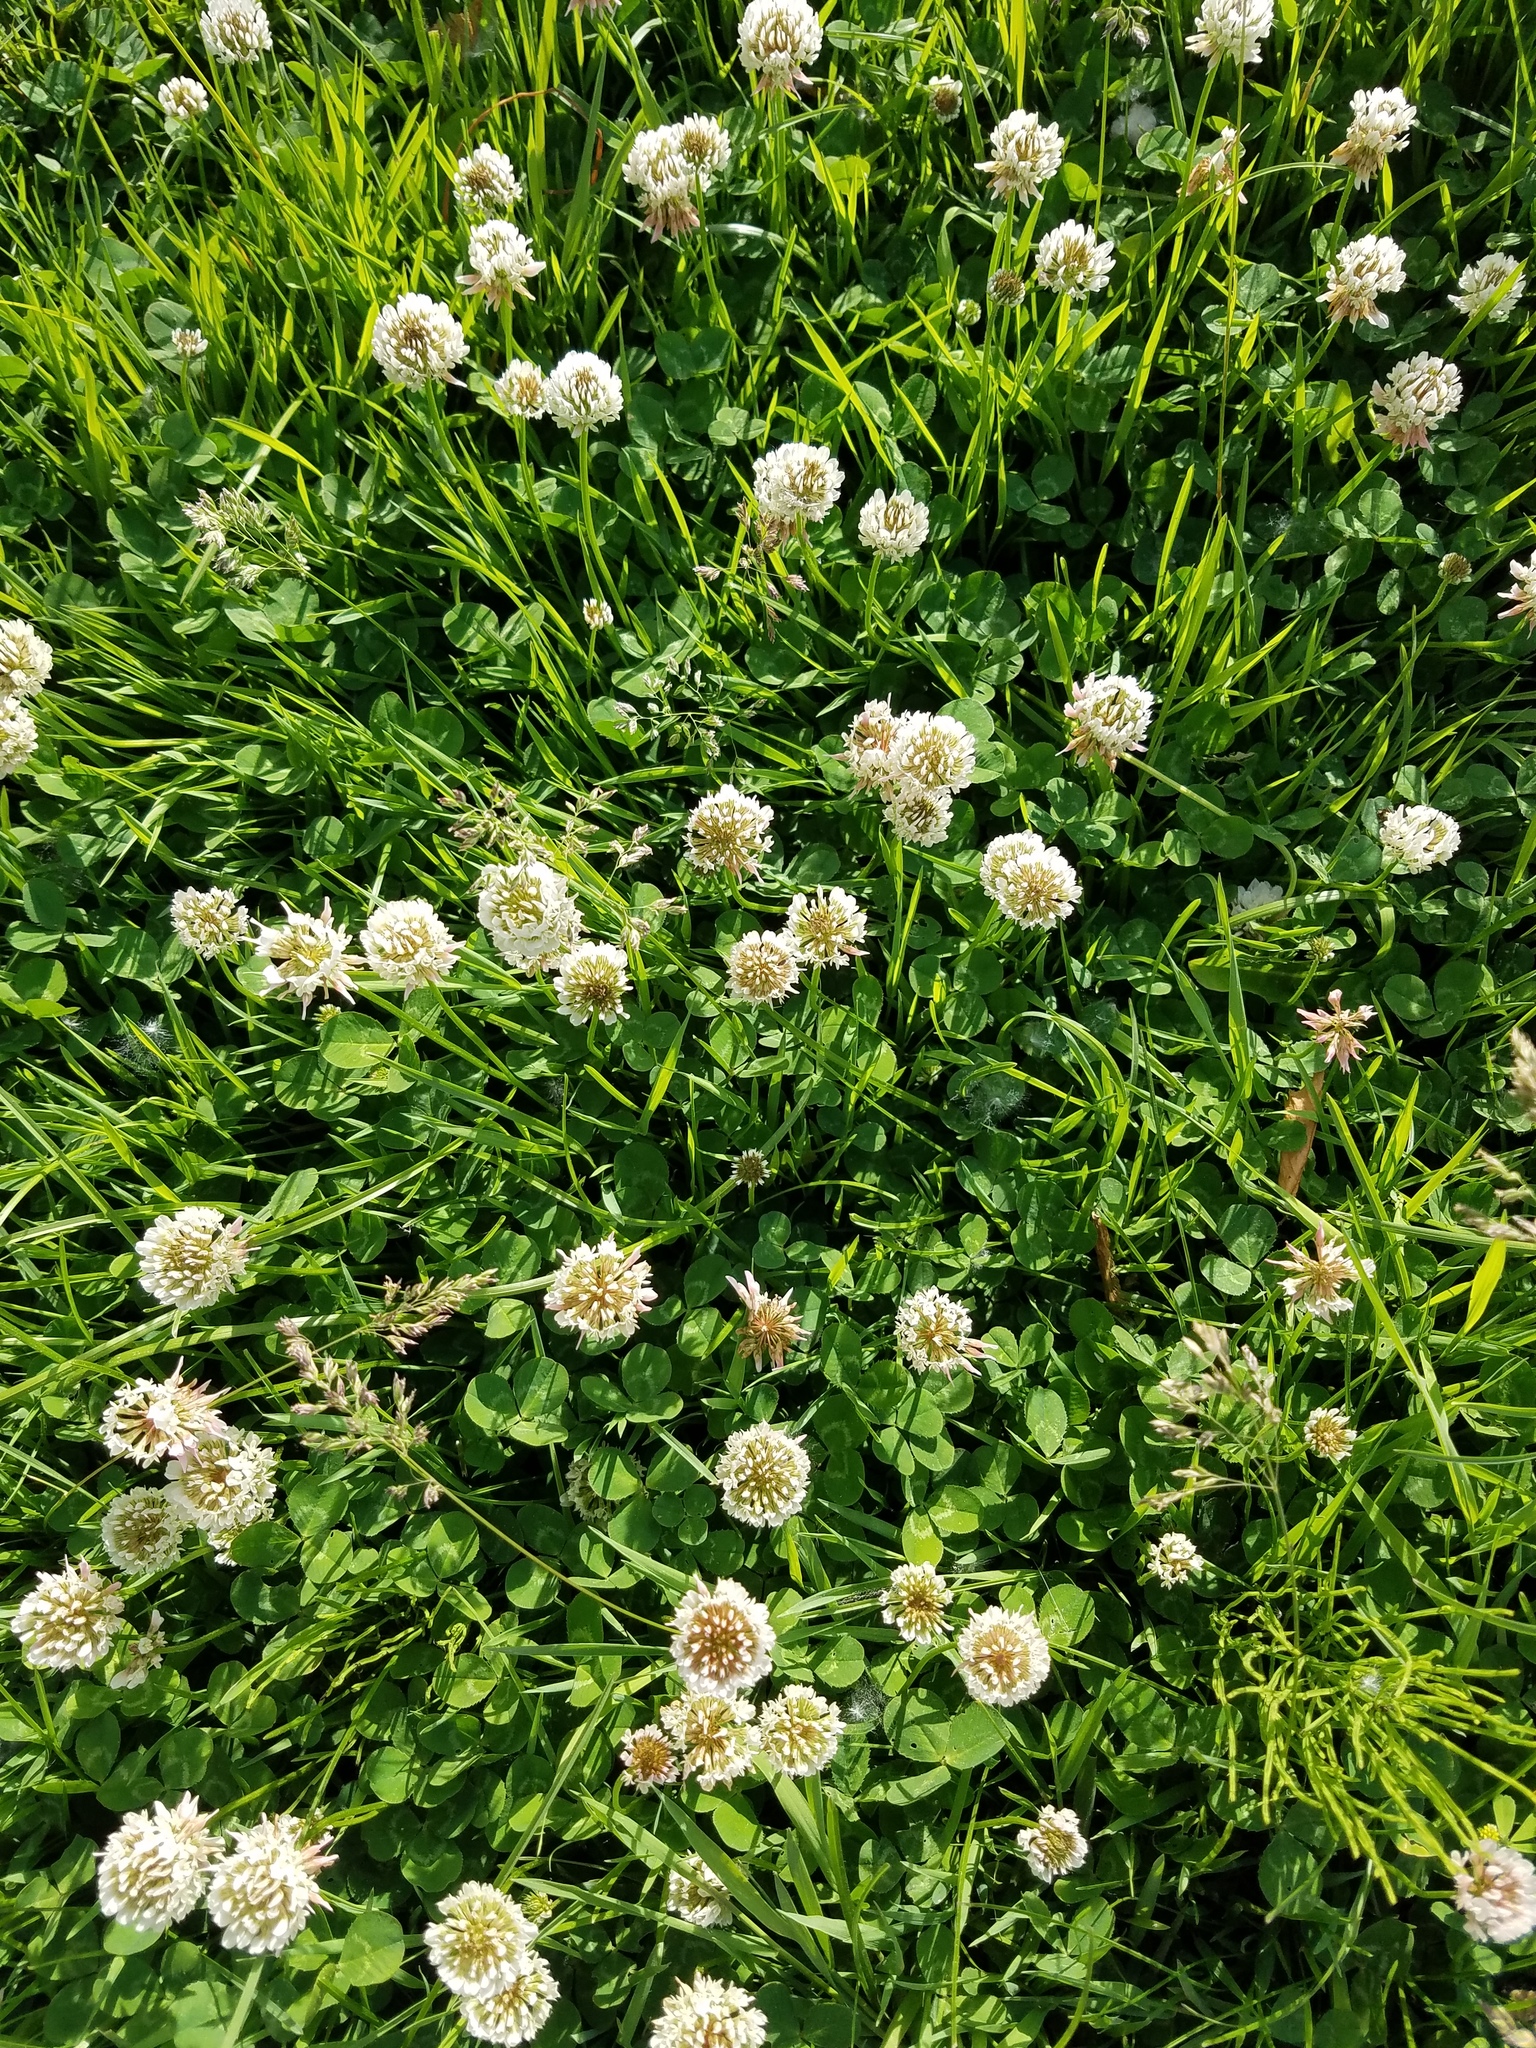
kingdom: Plantae
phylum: Tracheophyta
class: Magnoliopsida
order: Fabales
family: Fabaceae
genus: Trifolium
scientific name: Trifolium repens
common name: White clover
